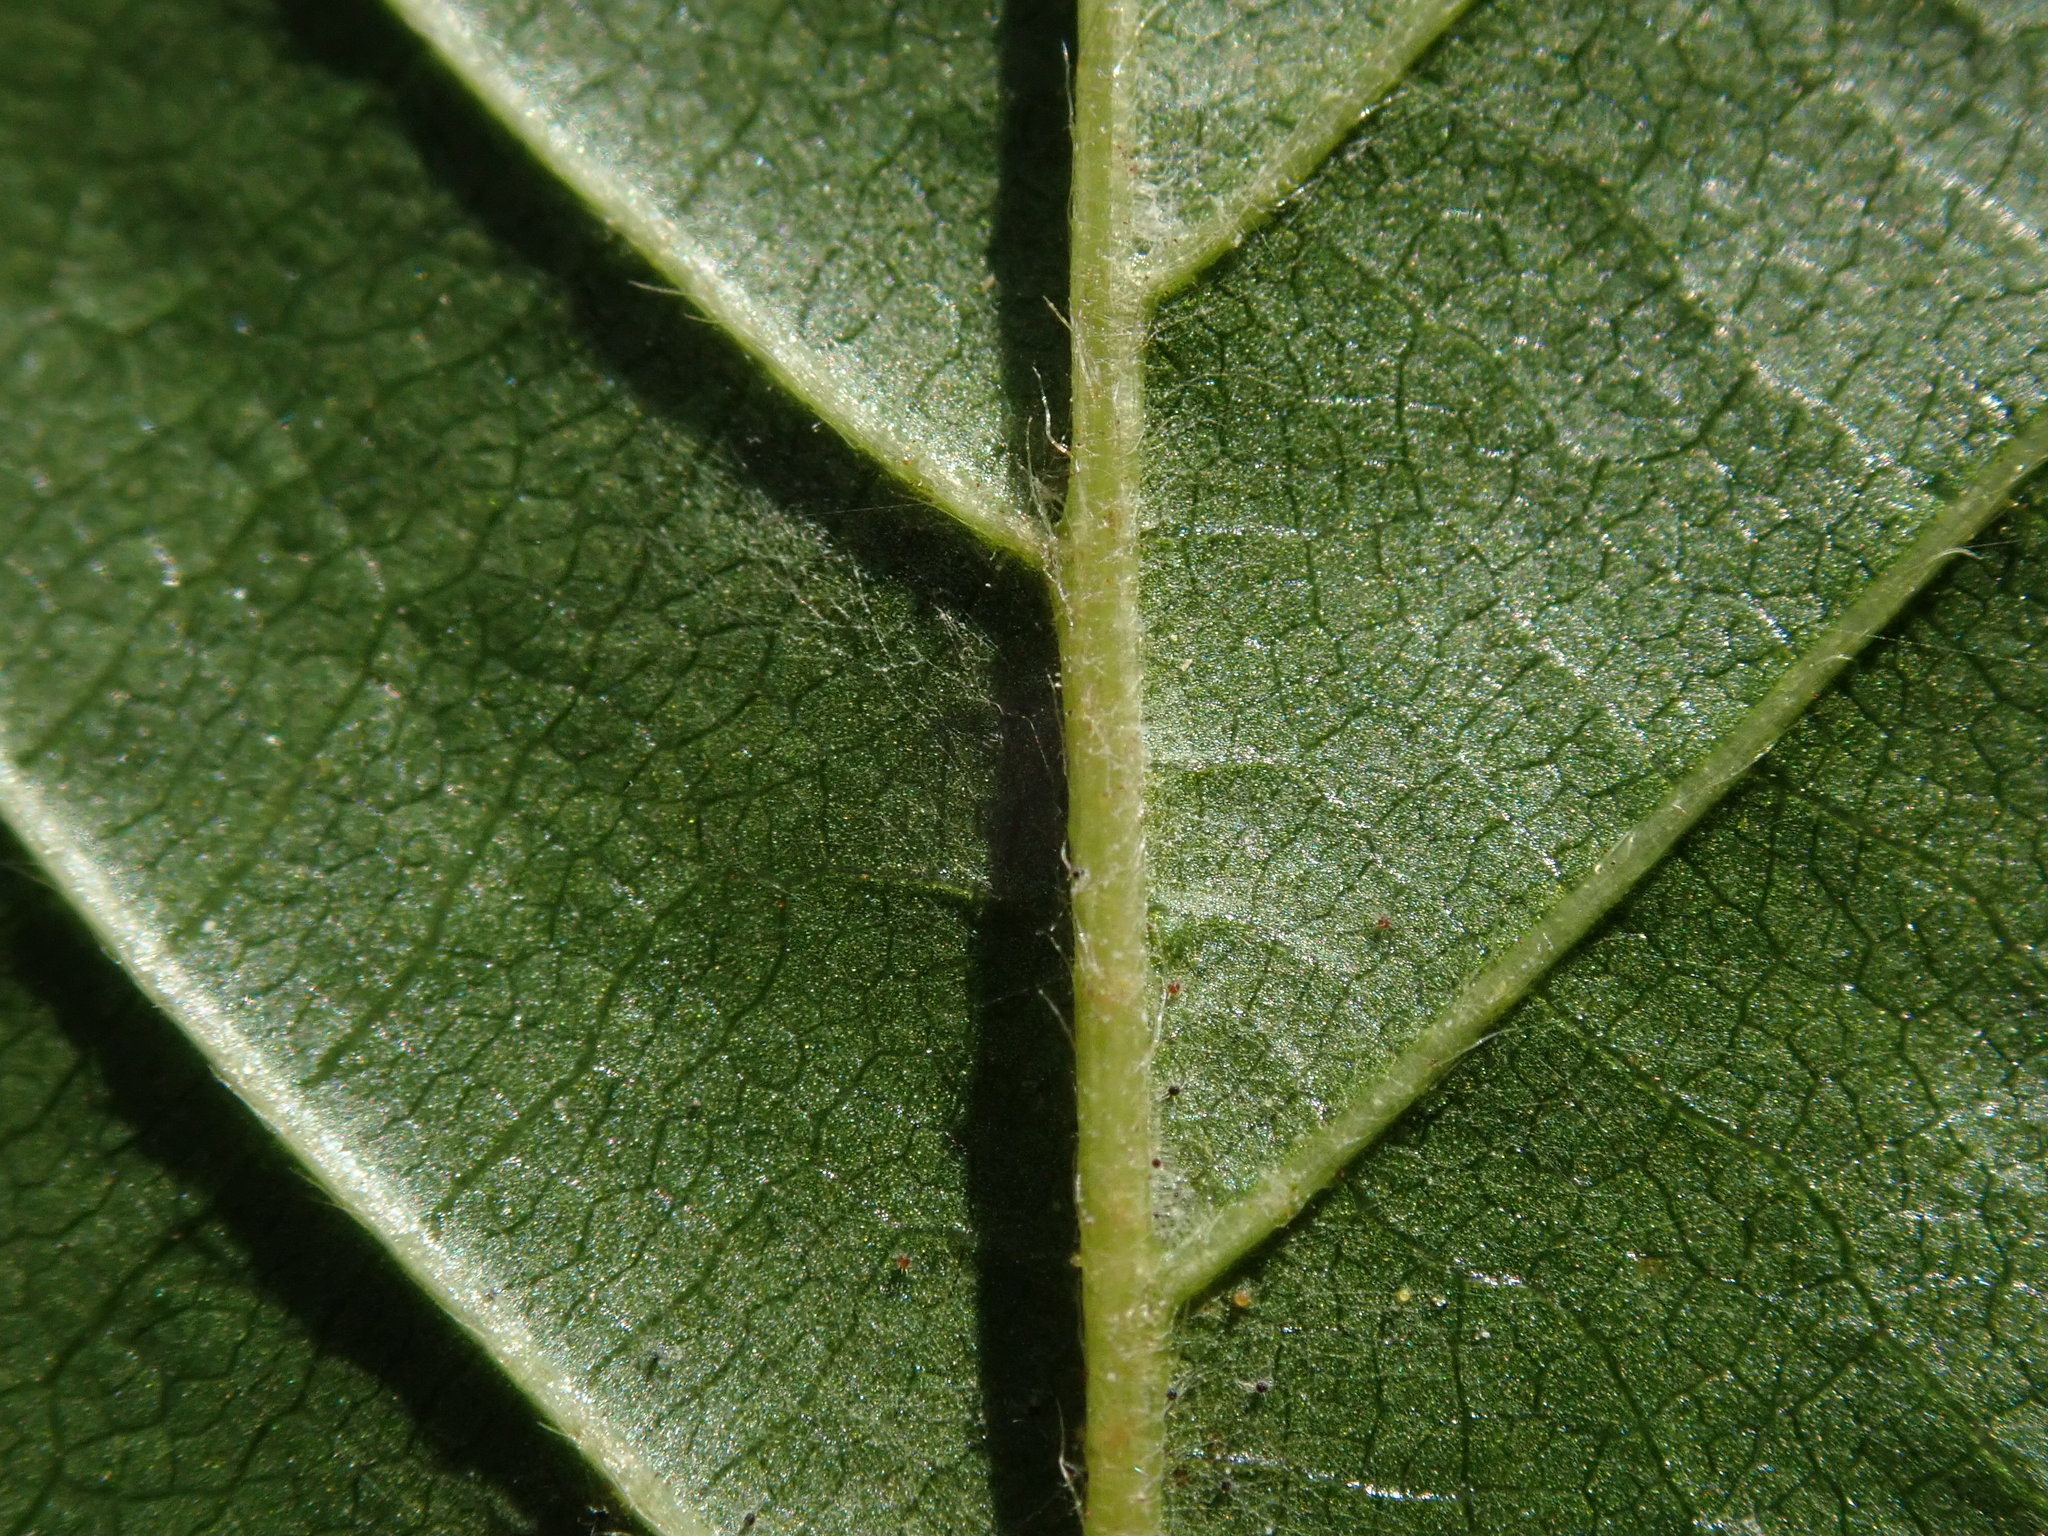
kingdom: Plantae
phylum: Tracheophyta
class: Magnoliopsida
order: Fagales
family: Betulaceae
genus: Carpinus
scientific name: Carpinus betulus
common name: Hornbeam
